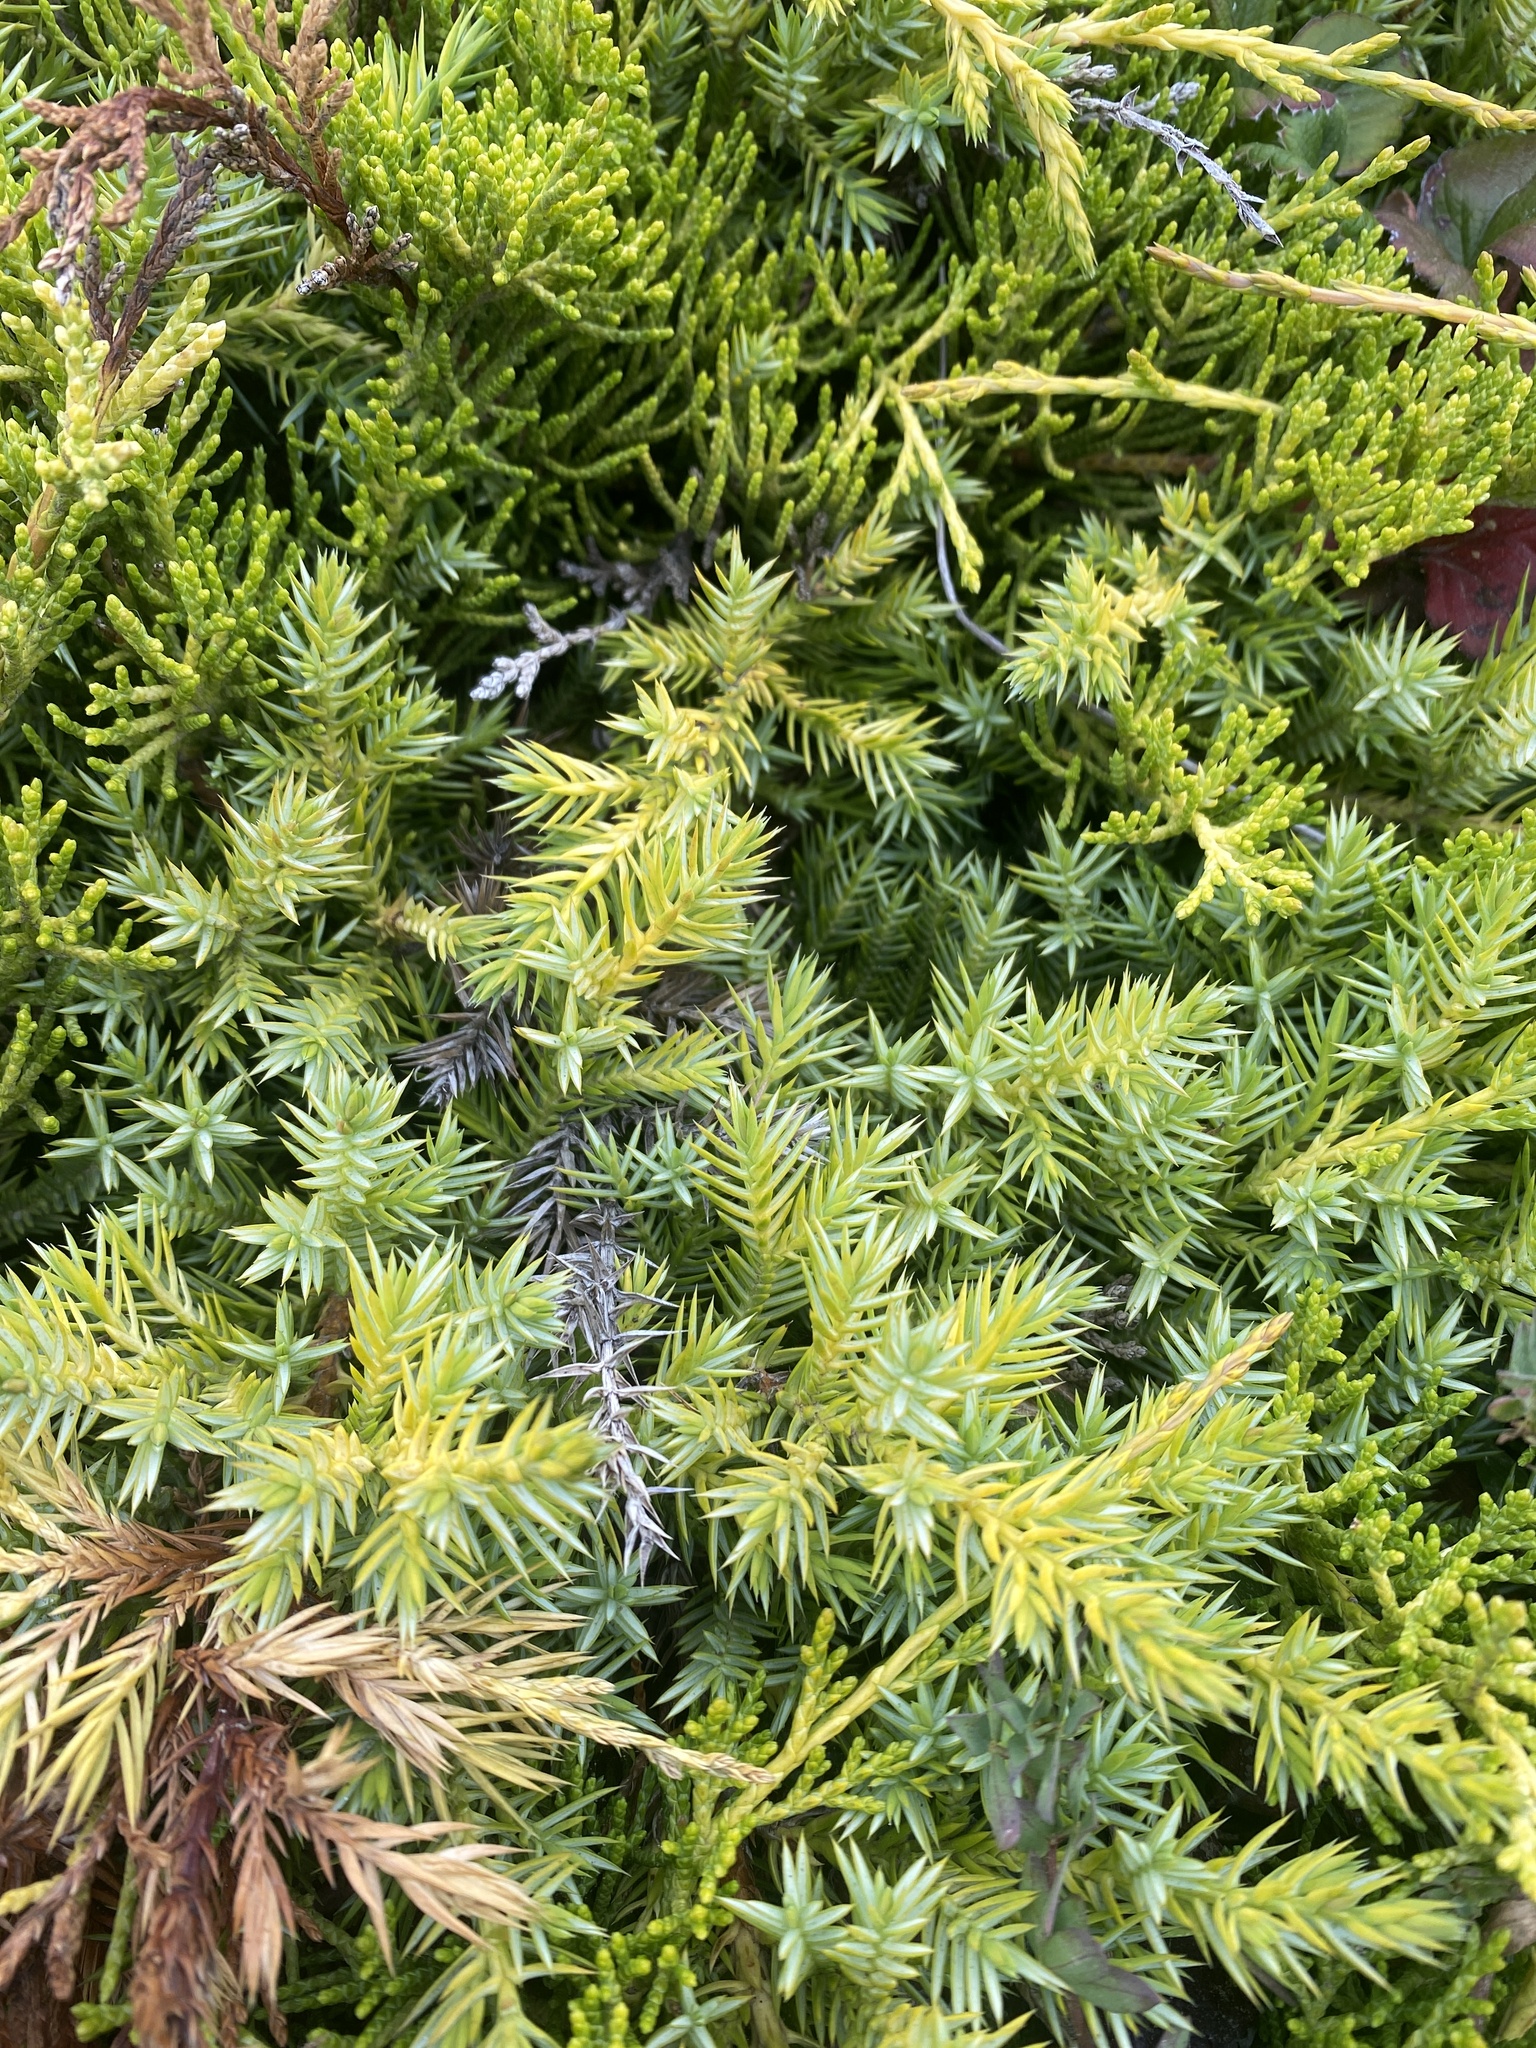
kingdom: Plantae
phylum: Tracheophyta
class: Pinopsida
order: Pinales
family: Cupressaceae
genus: Juniperus
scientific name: Juniperus communis
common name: Common juniper
